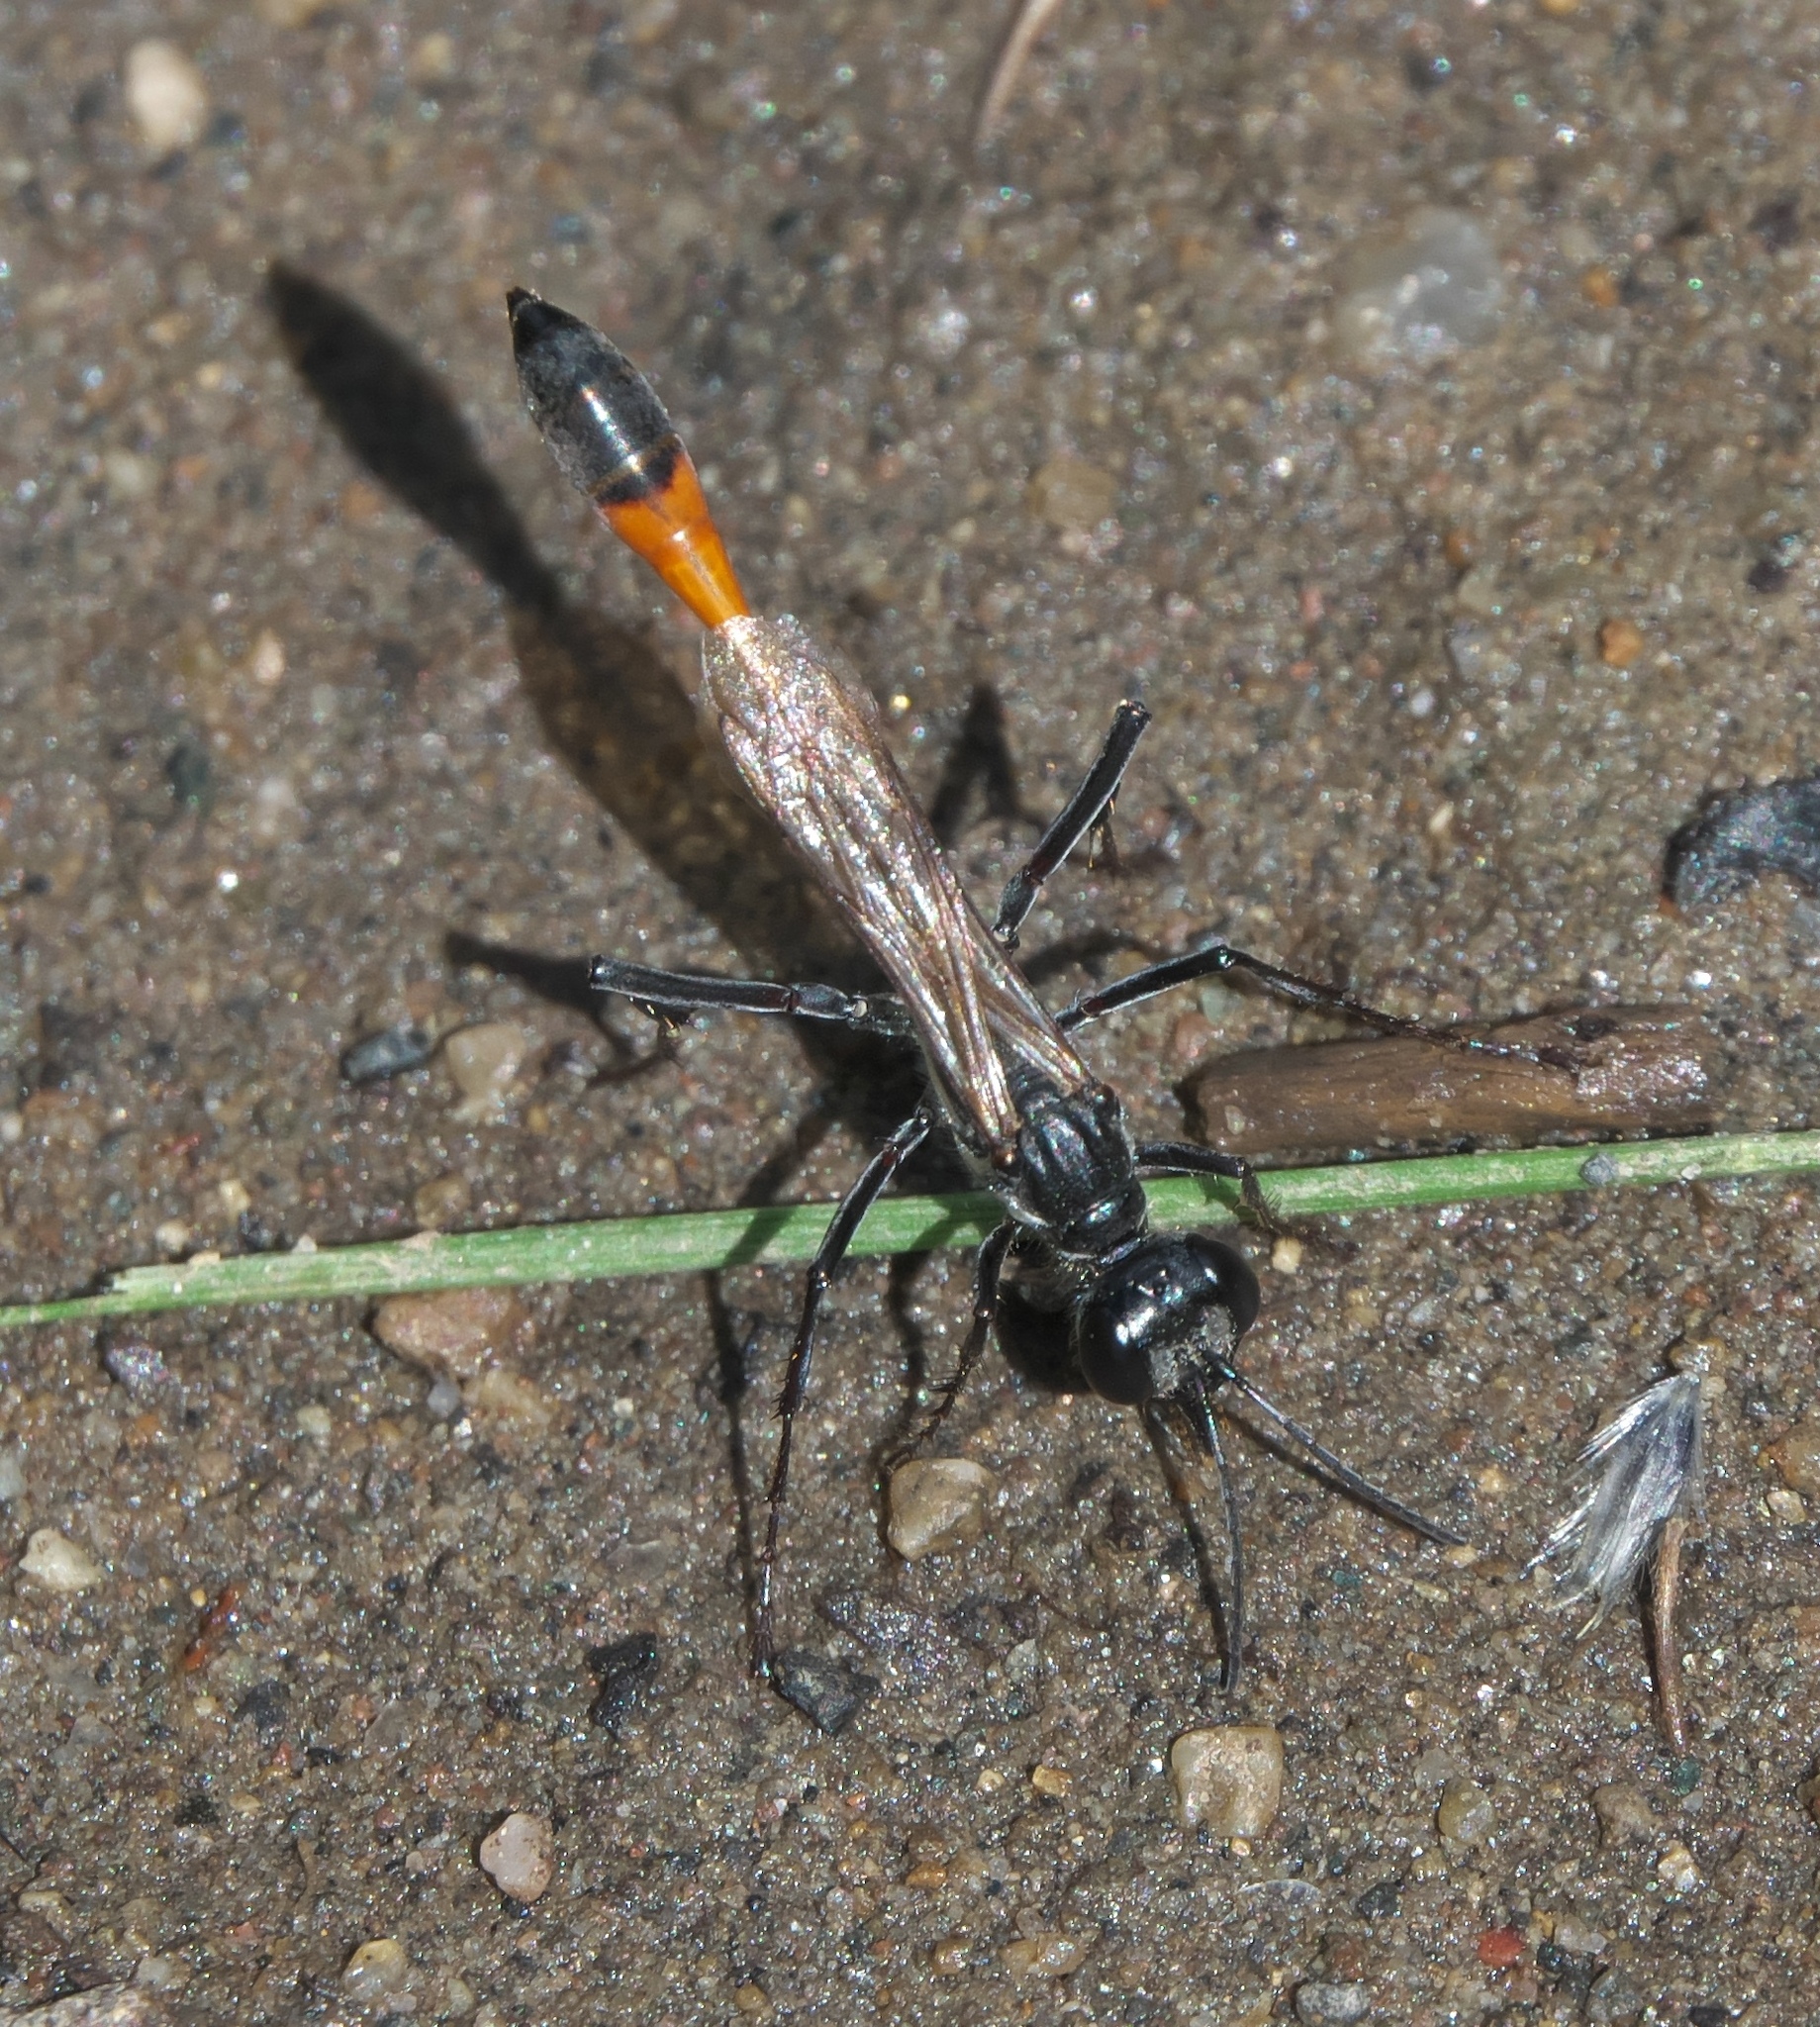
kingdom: Animalia
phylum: Arthropoda
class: Insecta
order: Hymenoptera
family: Sphecidae
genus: Ammophila
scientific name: Ammophila procera
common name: Common thread-waisted wasp
